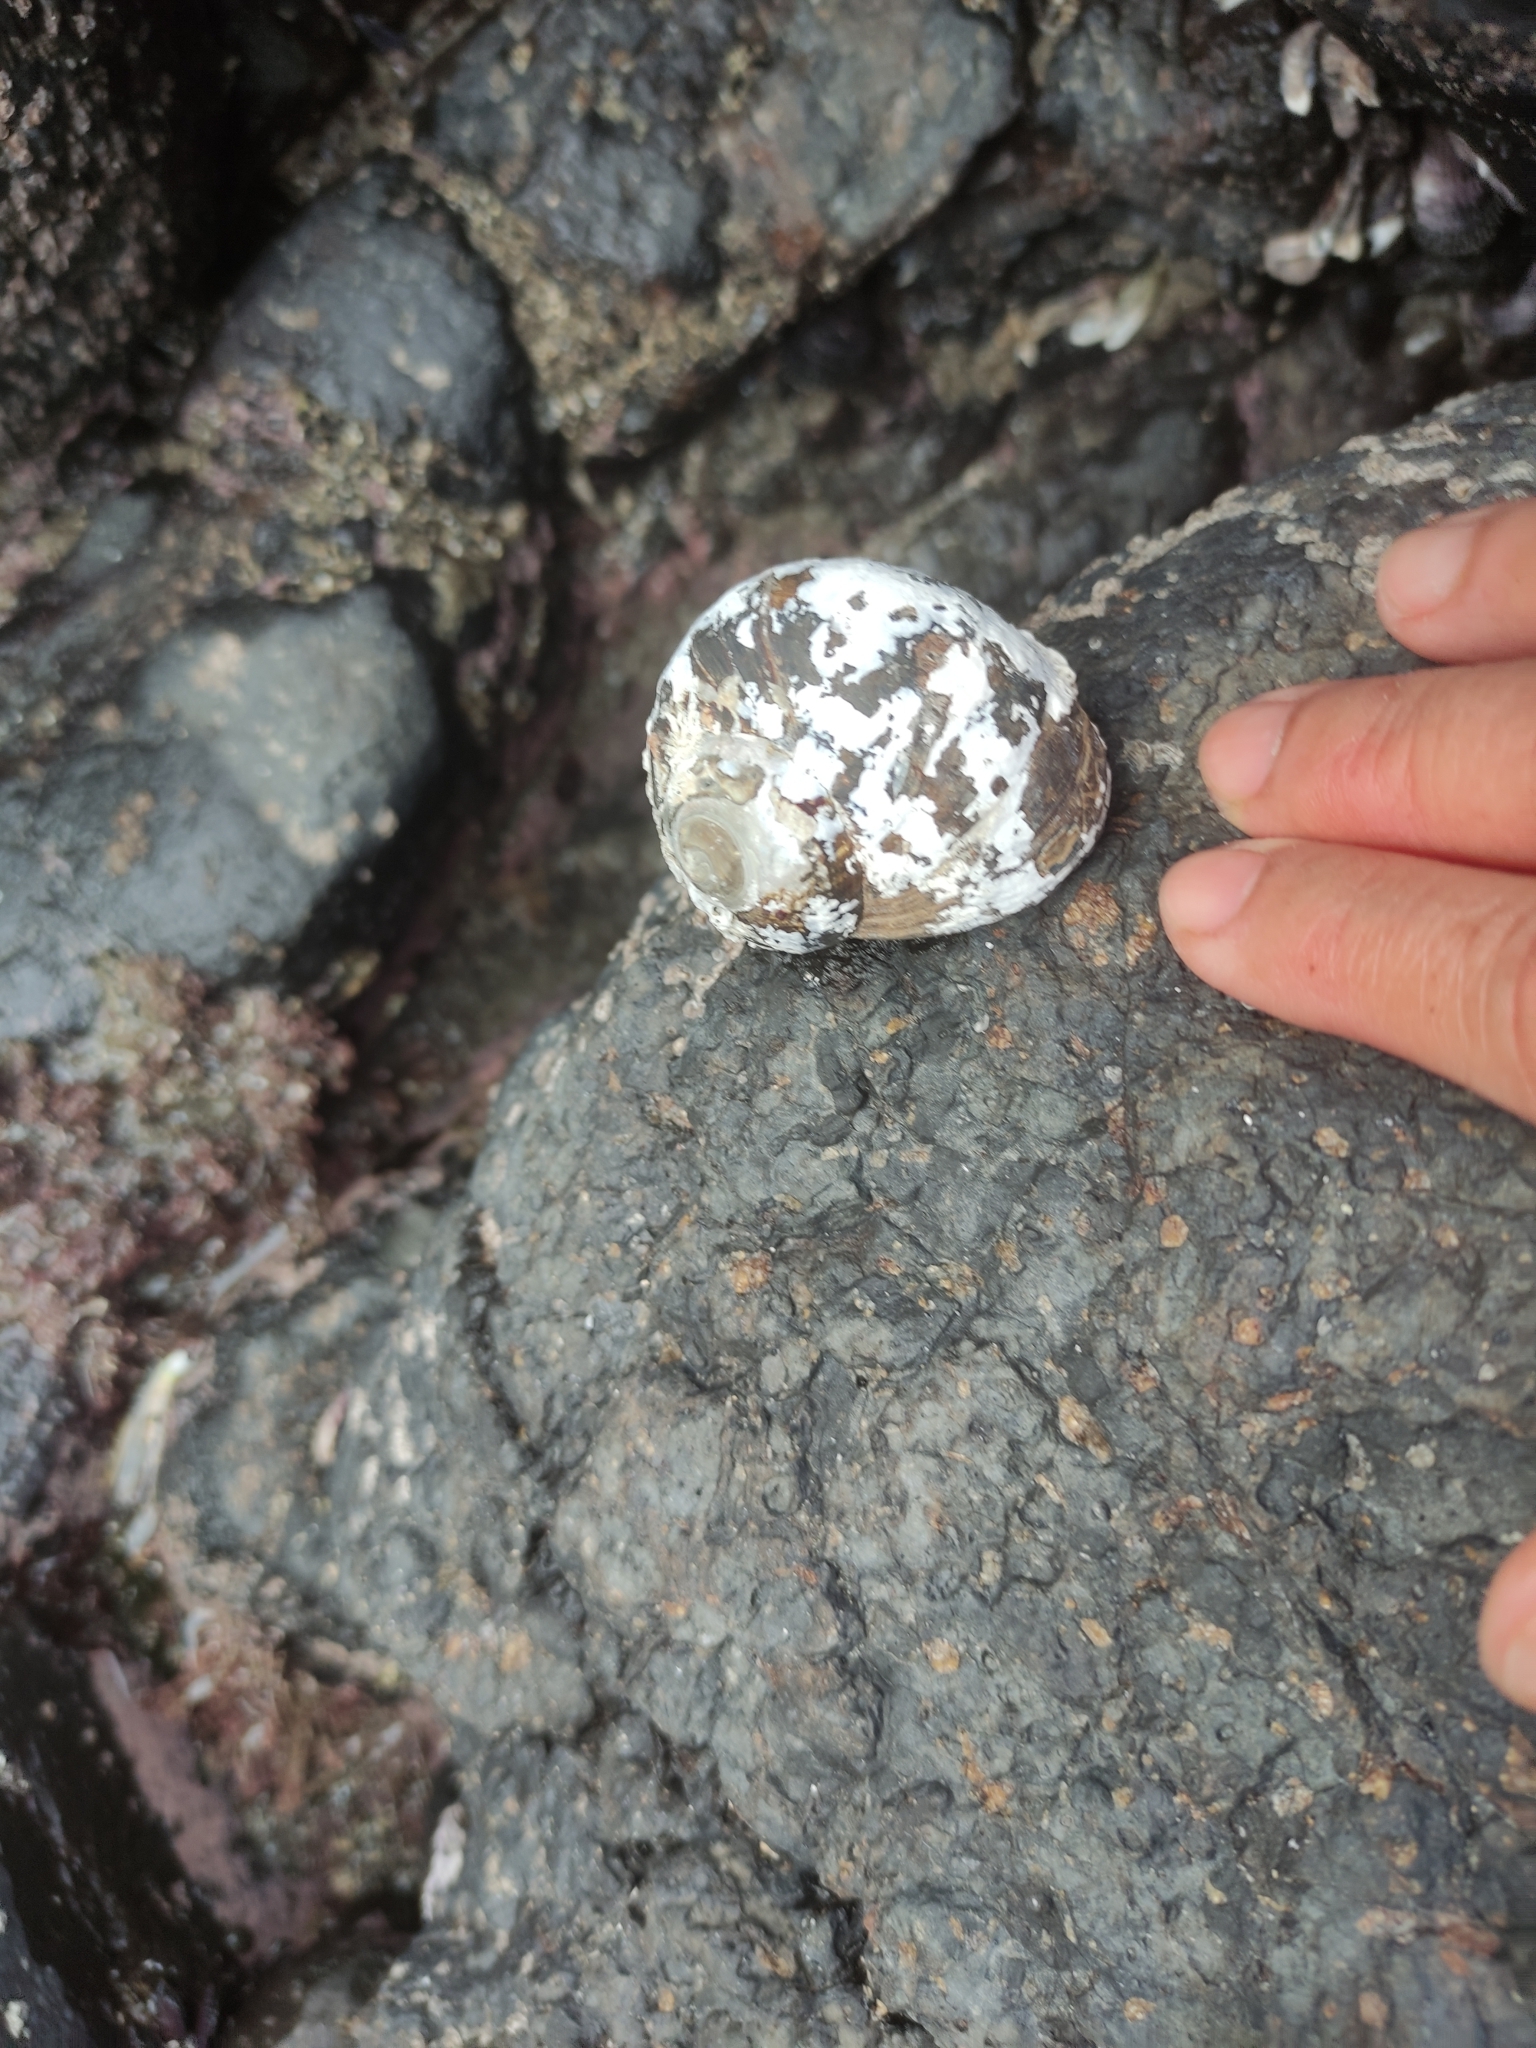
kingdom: Animalia
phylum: Mollusca
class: Gastropoda
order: Trochida
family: Turbinidae
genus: Lunella
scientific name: Lunella smaragda
